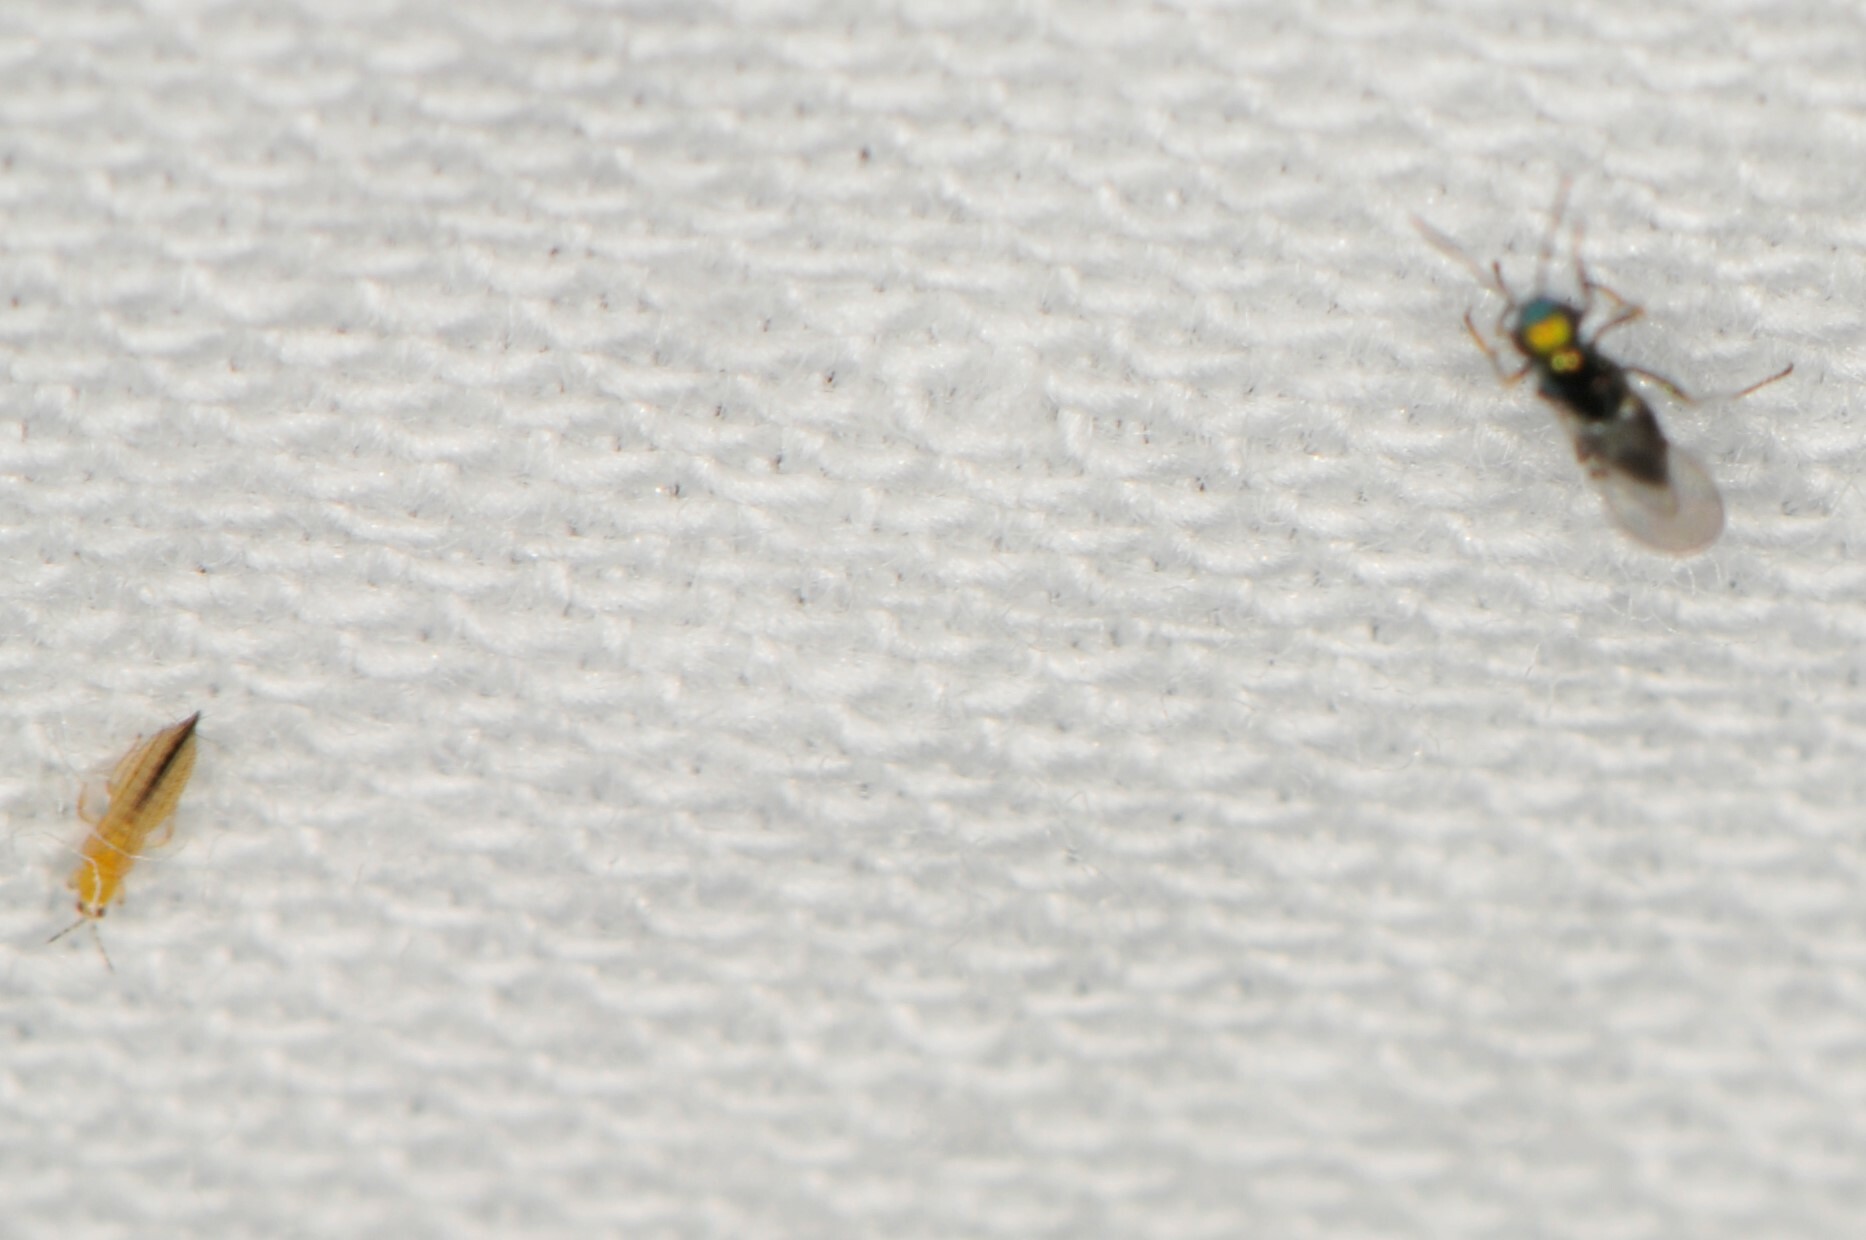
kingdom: Animalia
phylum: Arthropoda
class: Insecta
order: Thysanoptera
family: Thripidae
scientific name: Thripidae
